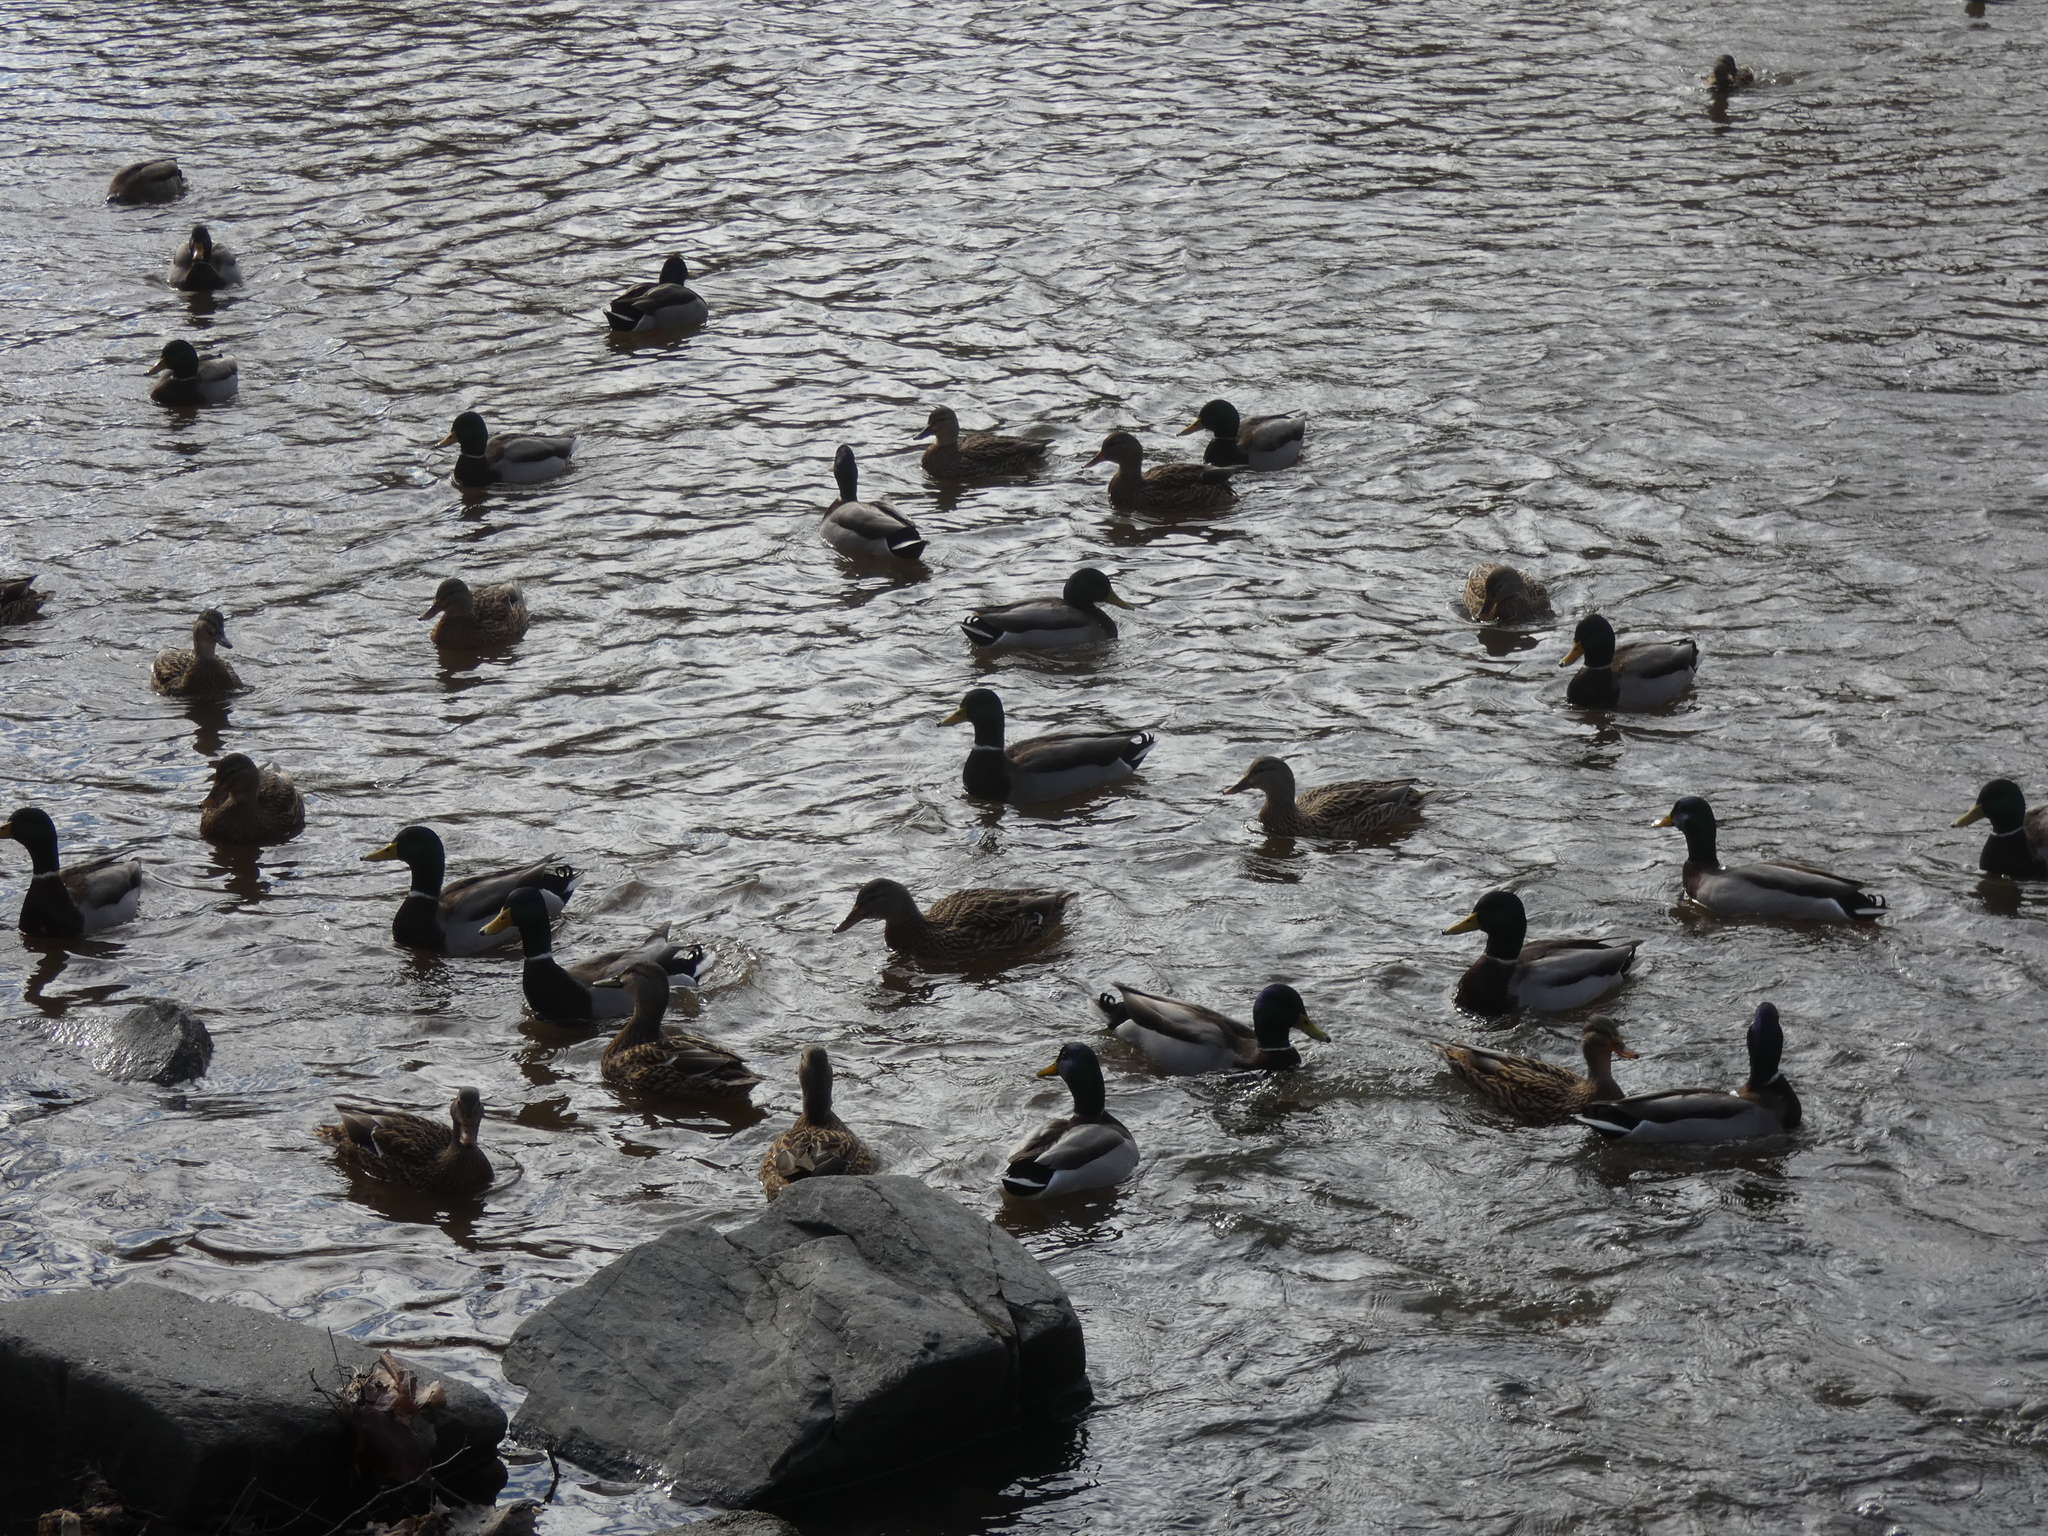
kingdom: Animalia
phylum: Chordata
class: Aves
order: Anseriformes
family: Anatidae
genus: Anas
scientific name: Anas platyrhynchos
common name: Mallard
